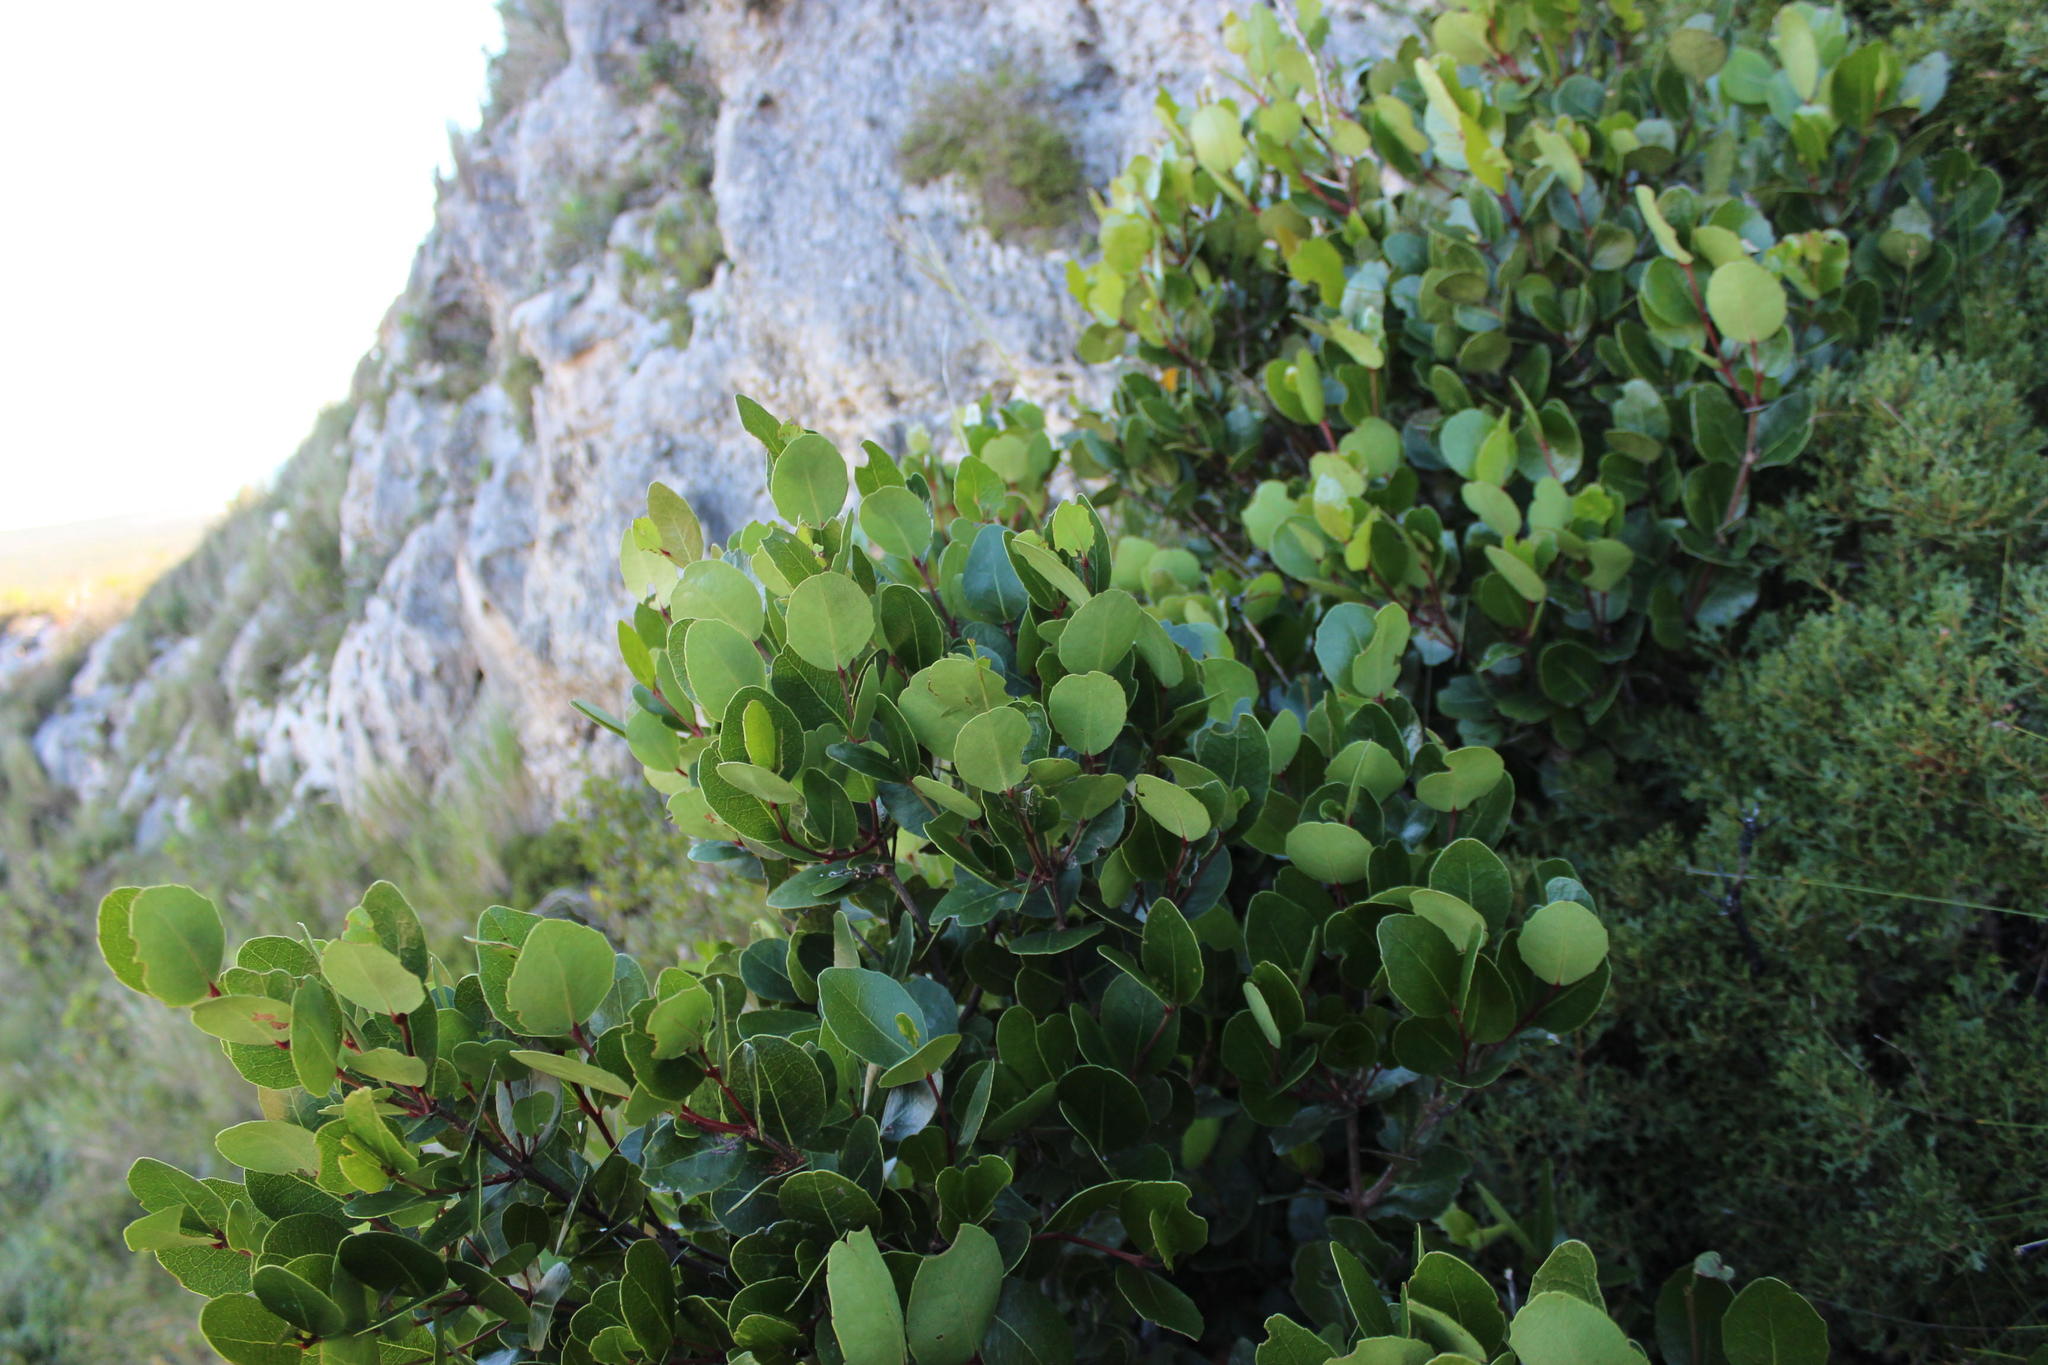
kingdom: Plantae
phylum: Tracheophyta
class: Magnoliopsida
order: Celastrales
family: Celastraceae
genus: Cassine
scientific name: Cassine peragua
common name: Cape saffron
